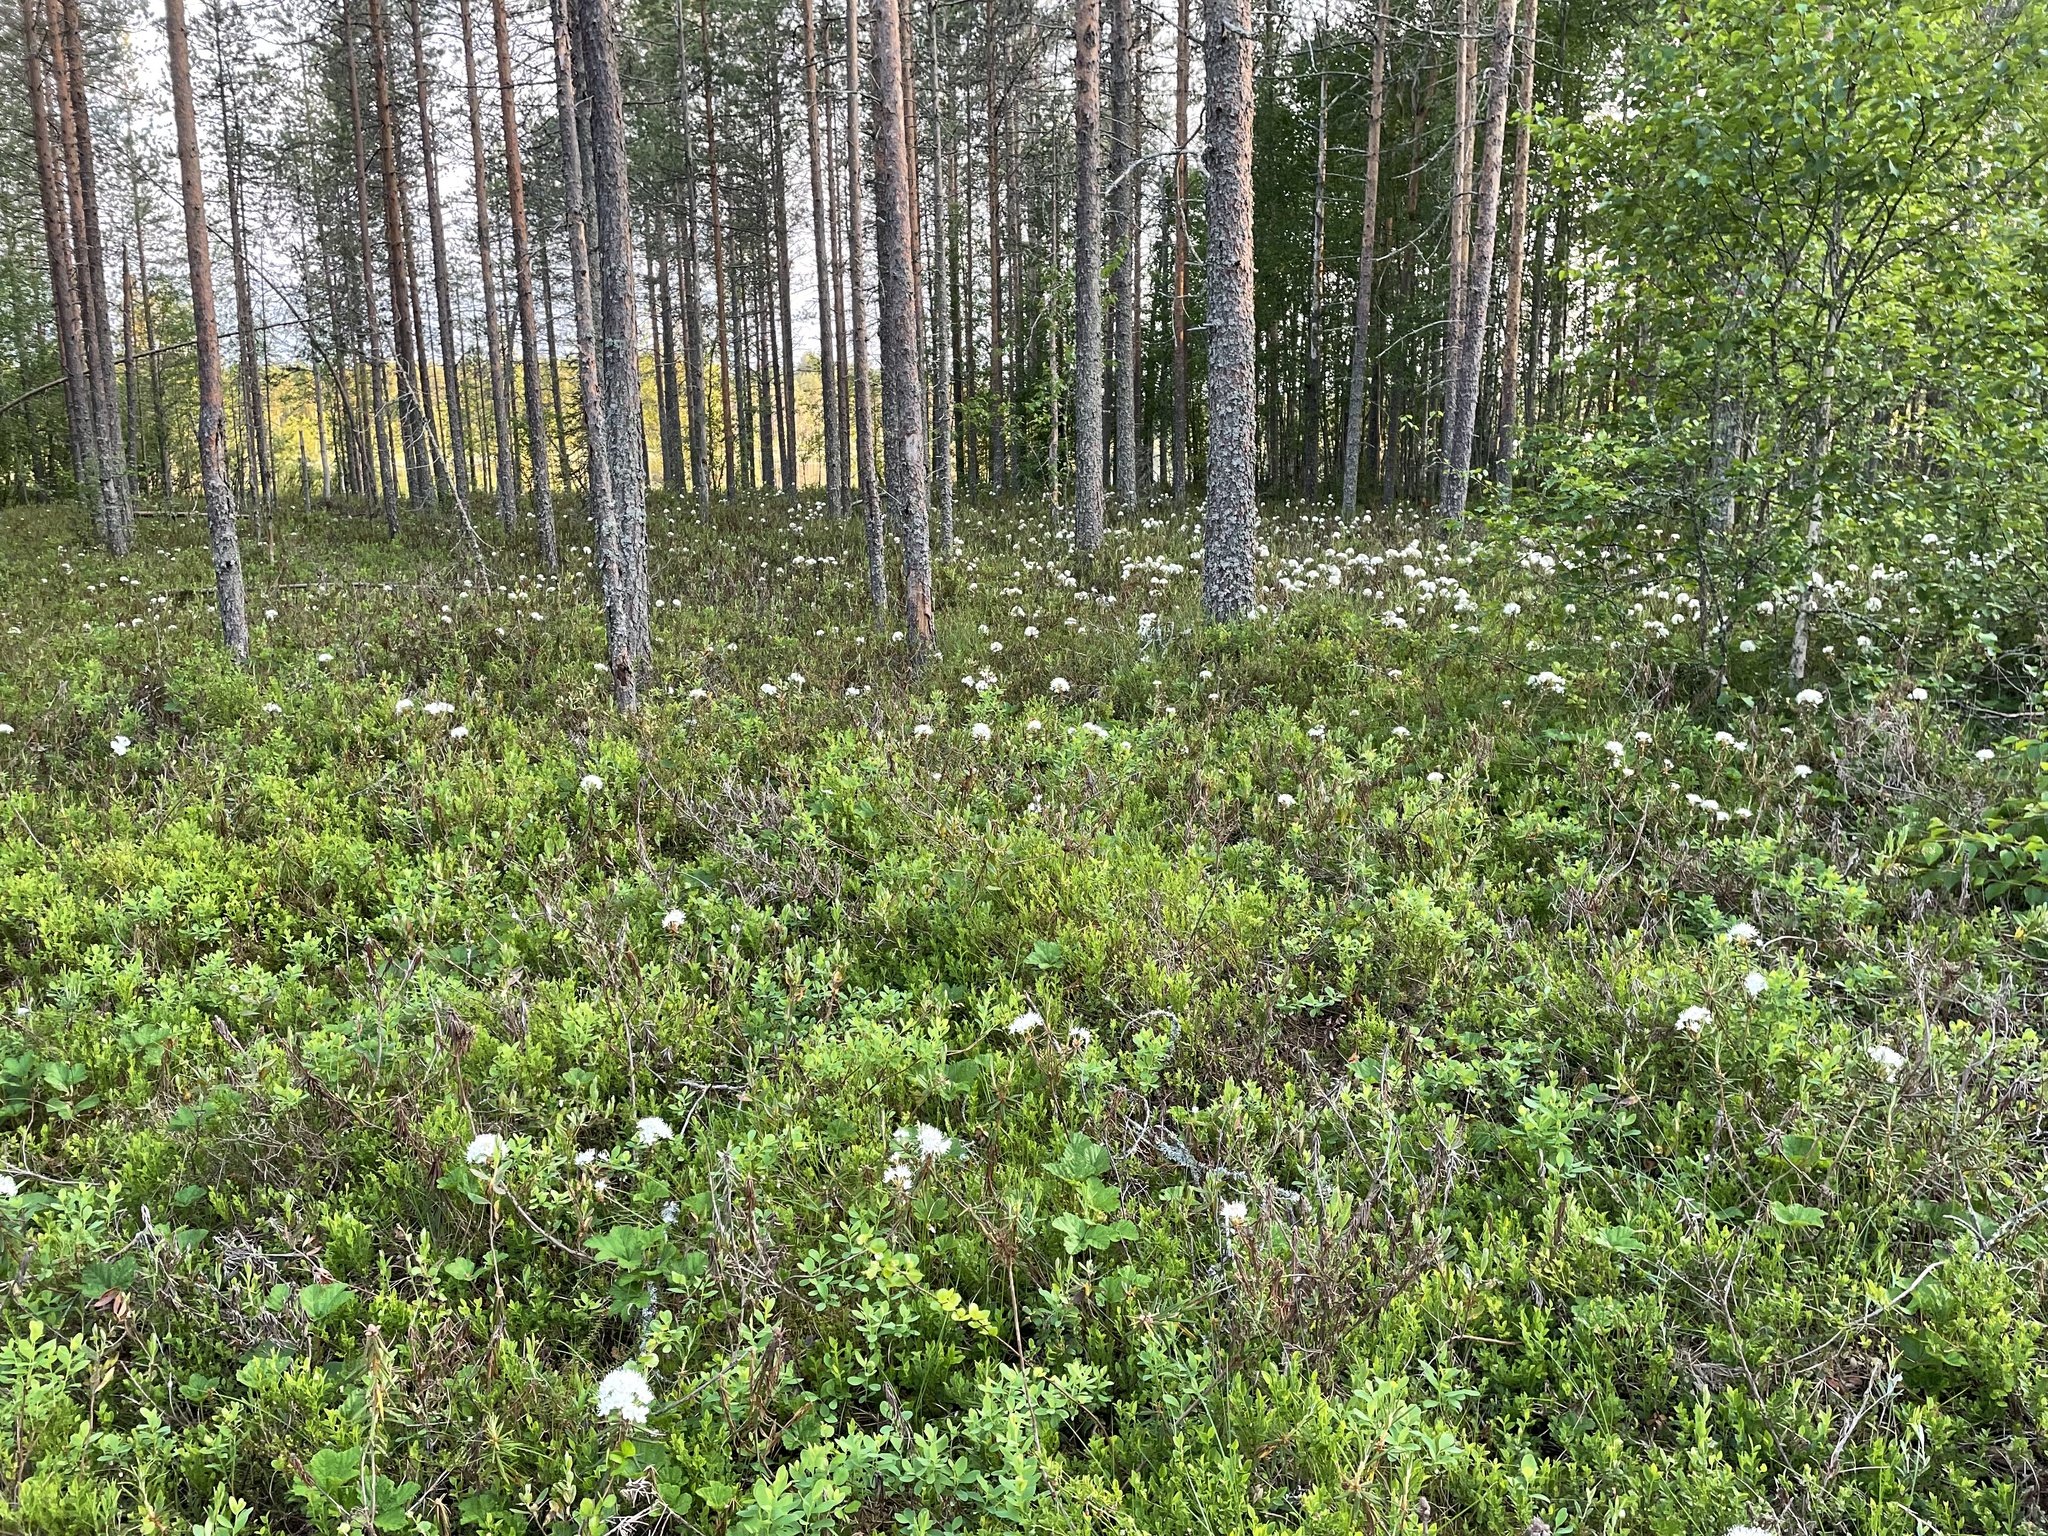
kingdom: Plantae
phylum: Tracheophyta
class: Magnoliopsida
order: Ericales
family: Ericaceae
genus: Rhododendron
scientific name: Rhododendron tomentosum
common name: Marsh labrador tea
